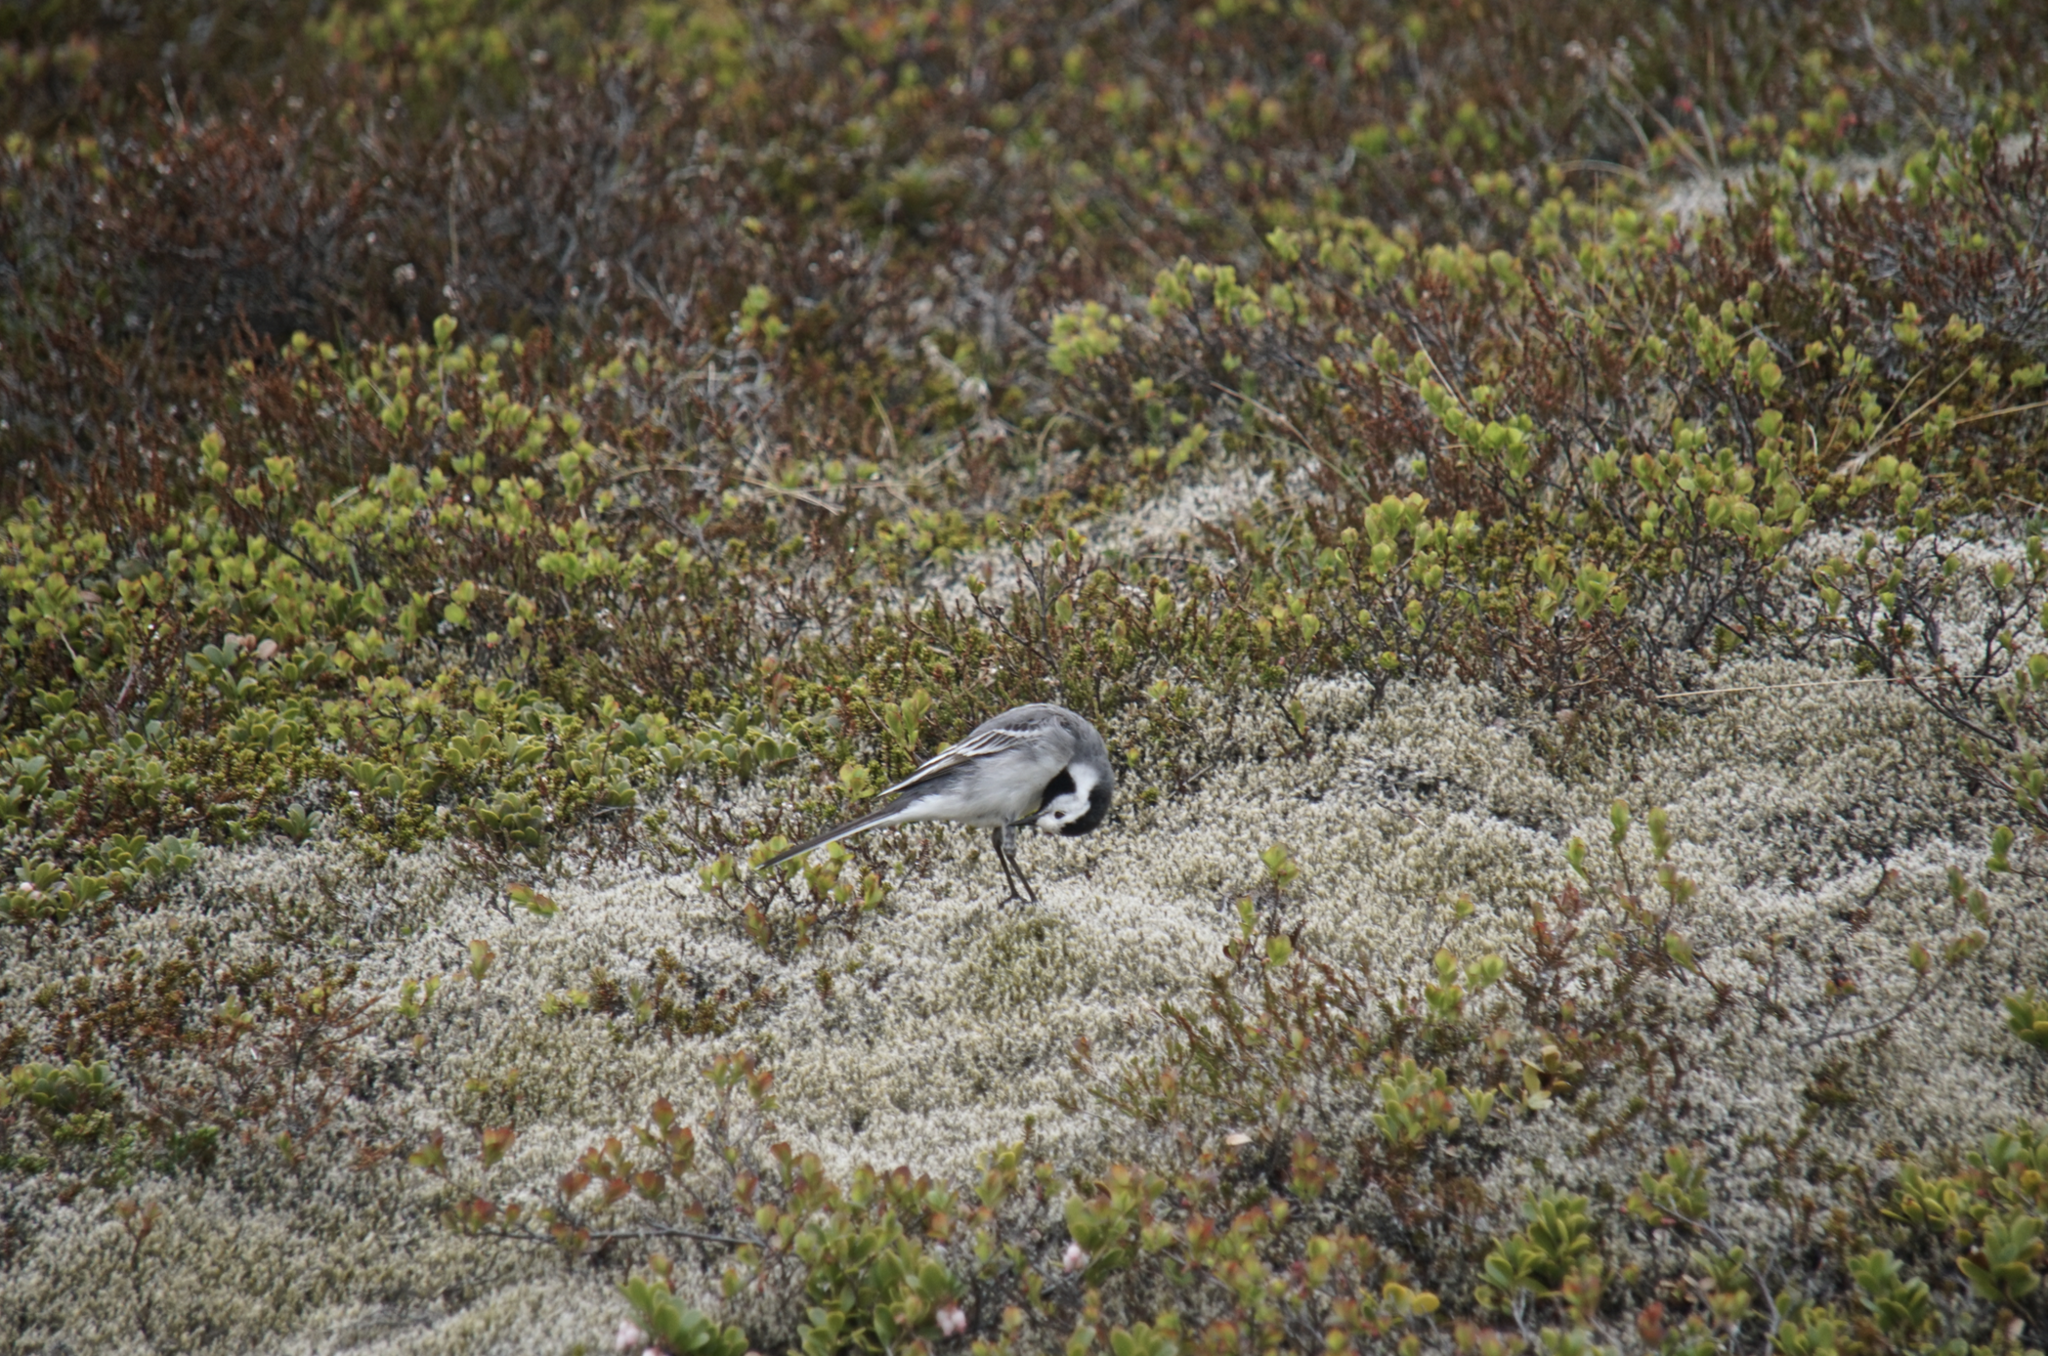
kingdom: Animalia
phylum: Chordata
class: Aves
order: Passeriformes
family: Motacillidae
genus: Motacilla
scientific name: Motacilla alba
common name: White wagtail
